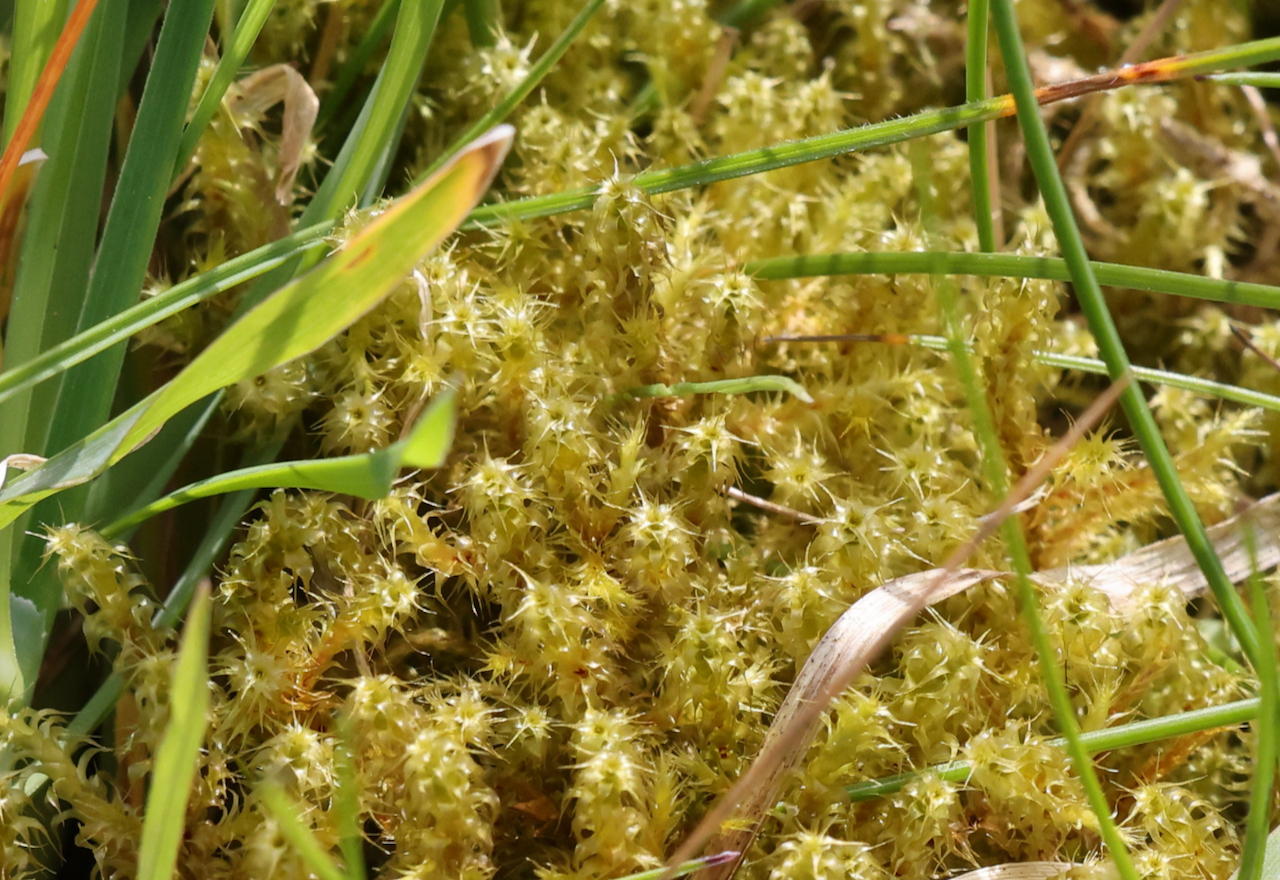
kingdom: Plantae
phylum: Bryophyta
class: Bryopsida
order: Hypnales
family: Hylocomiaceae
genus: Rhytidiadelphus
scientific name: Rhytidiadelphus squarrosus
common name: Springy turf-moss
